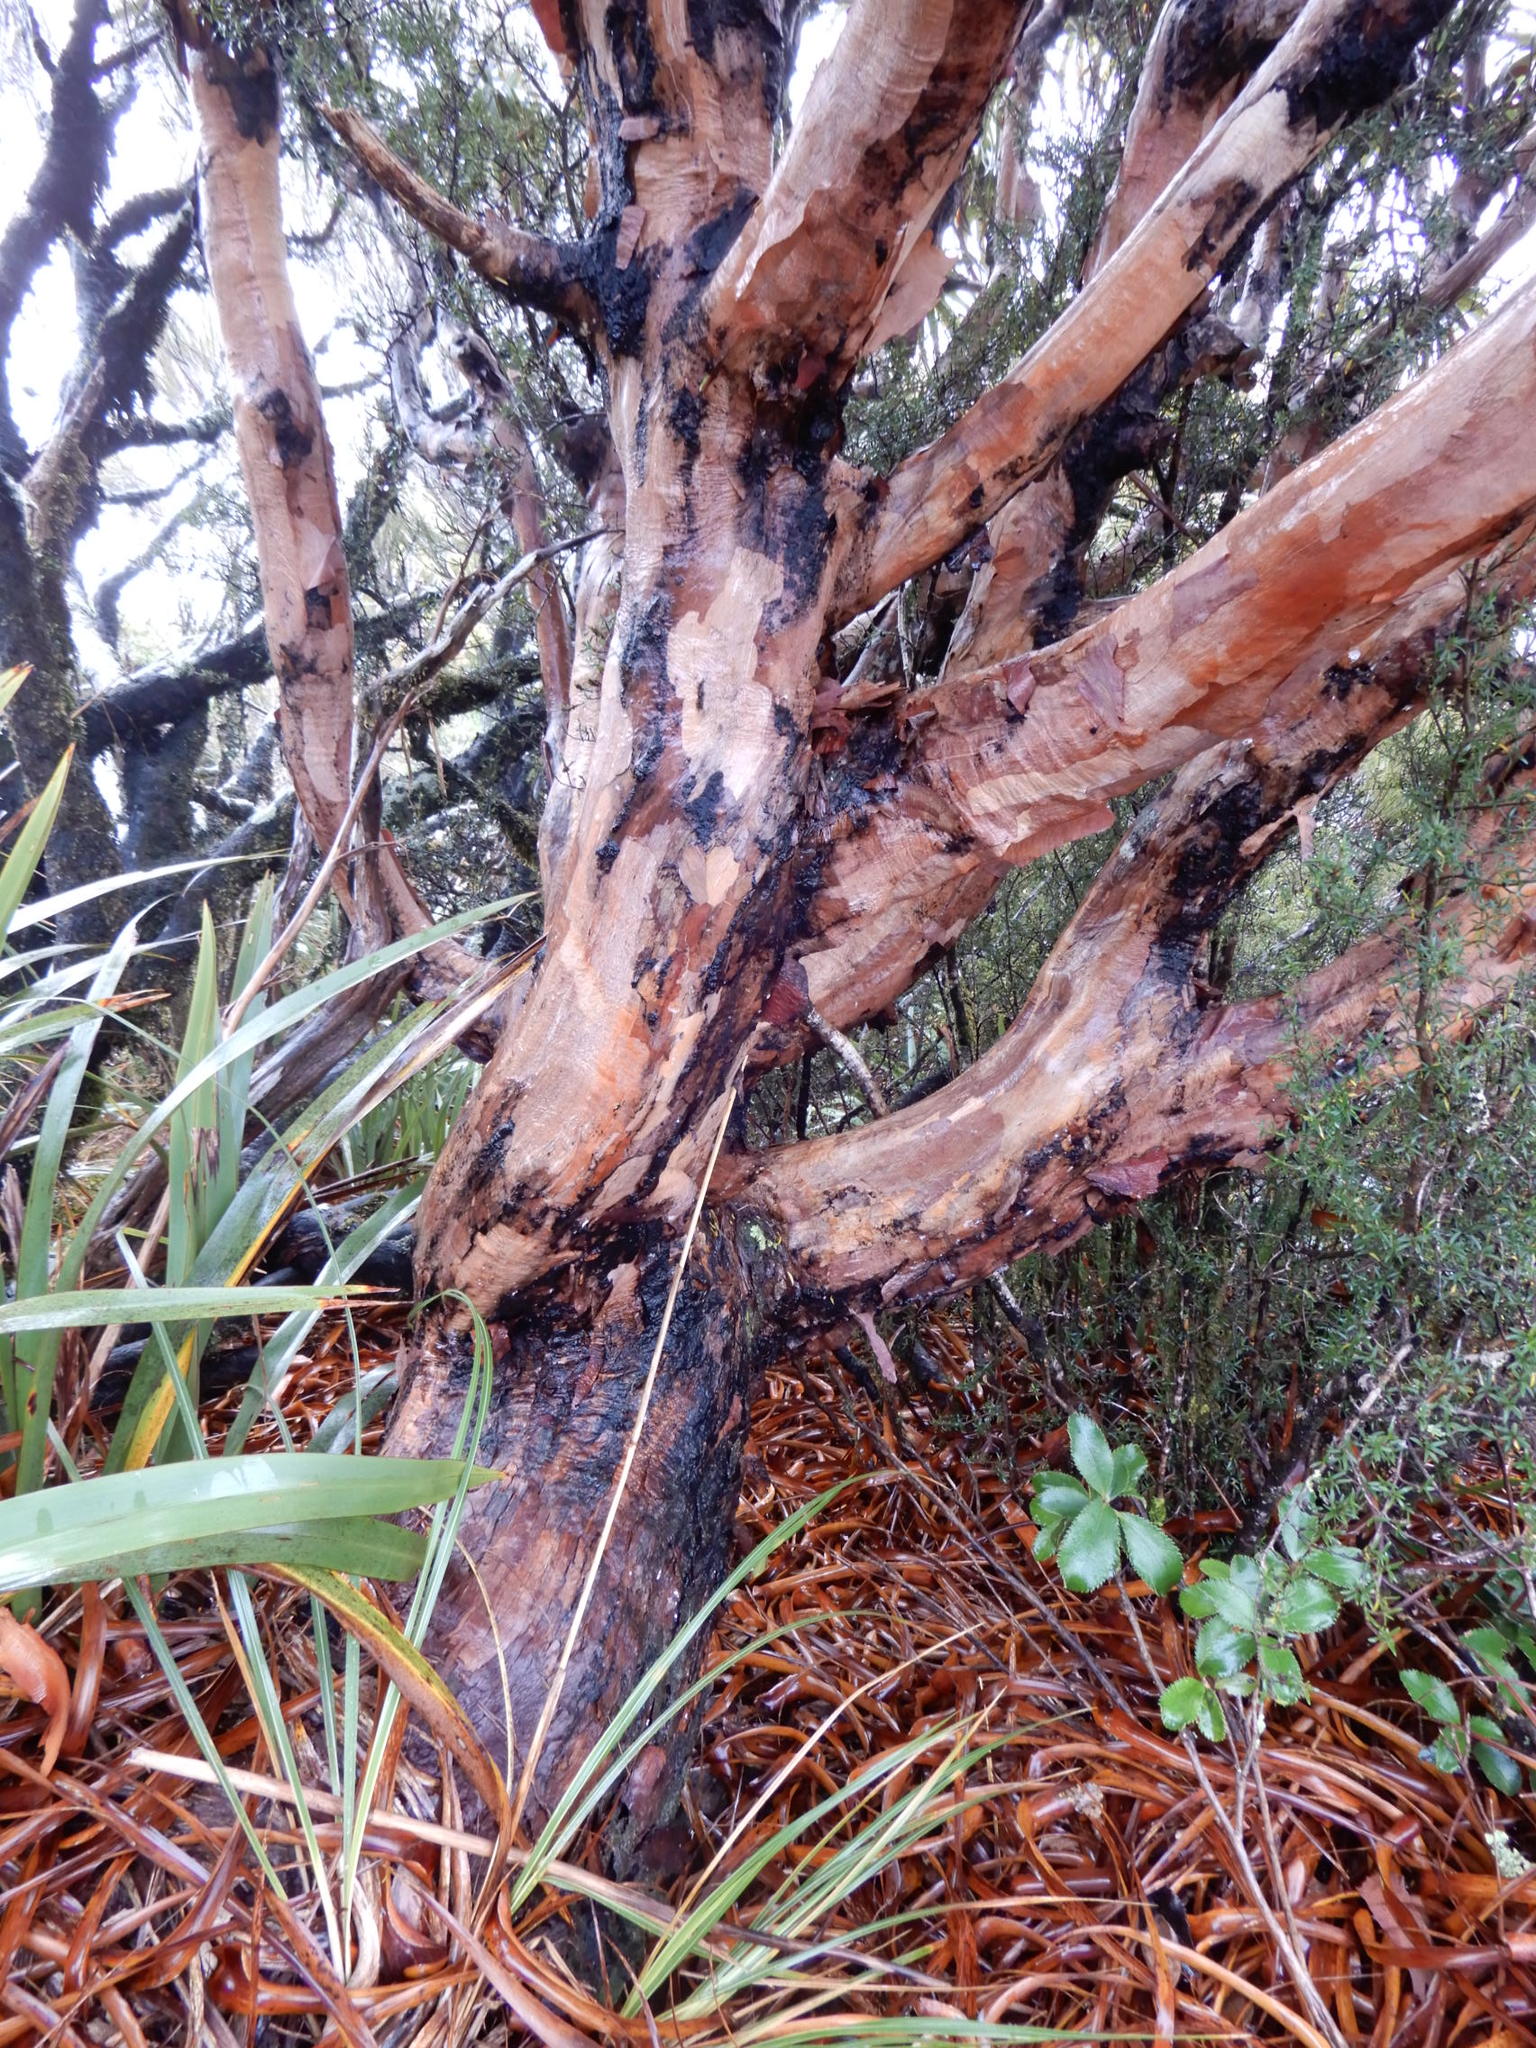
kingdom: Plantae
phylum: Tracheophyta
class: Magnoliopsida
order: Ericales
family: Ericaceae
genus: Dracophyllum
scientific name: Dracophyllum traversii
